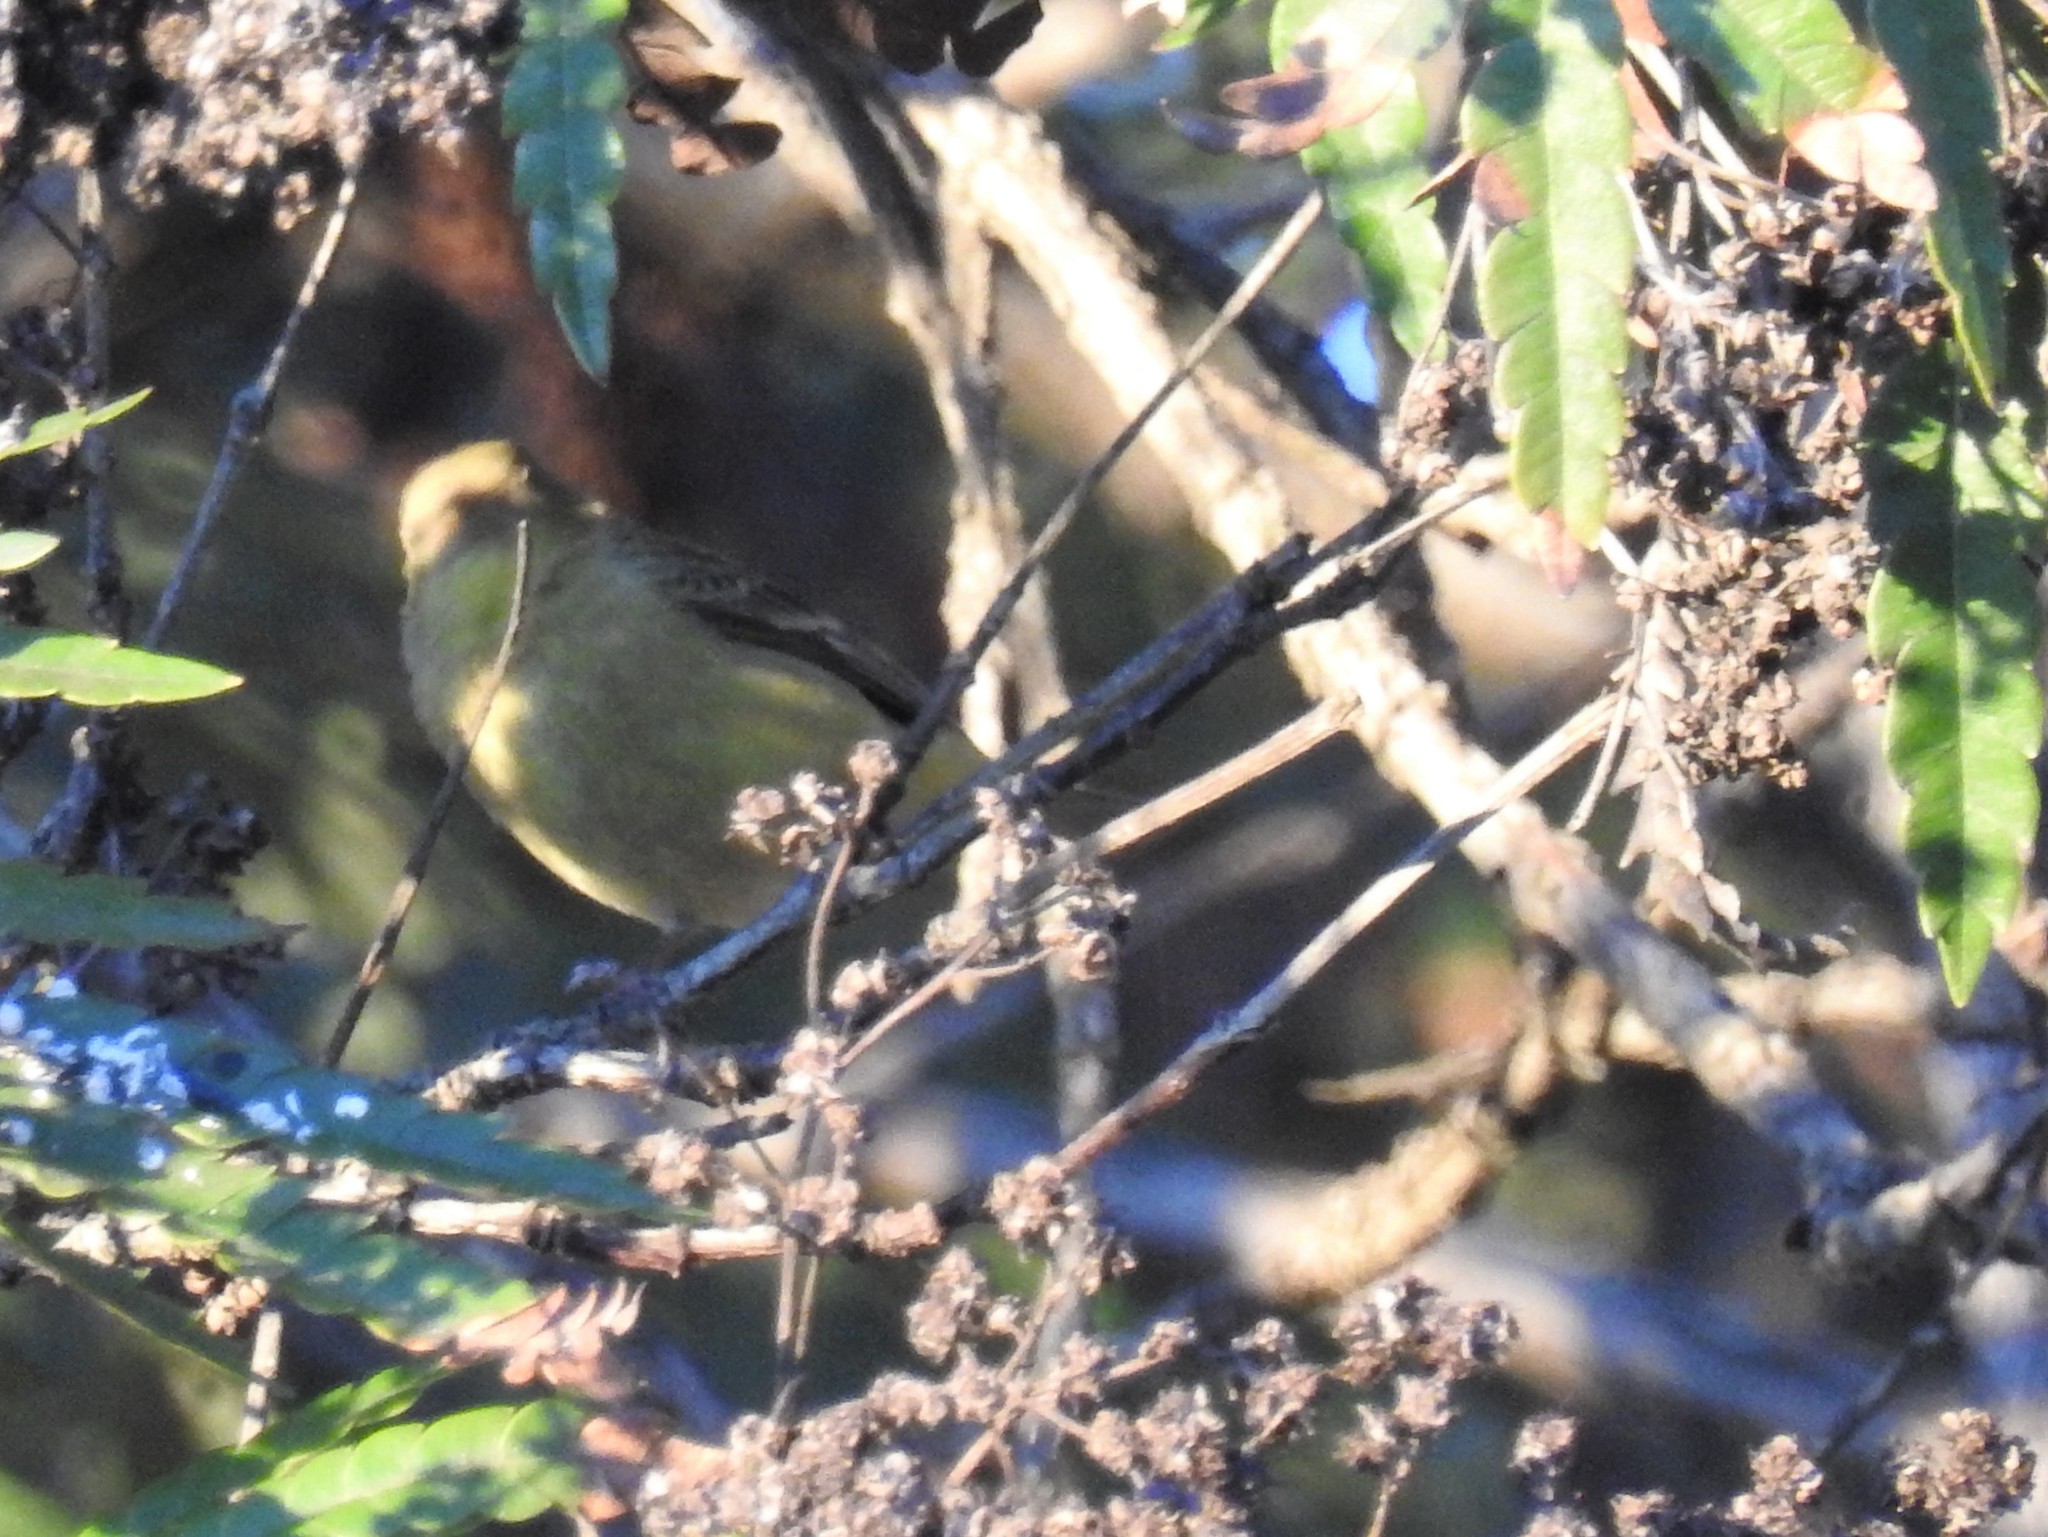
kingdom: Animalia
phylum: Chordata
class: Aves
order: Passeriformes
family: Fringillidae
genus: Spinus
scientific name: Spinus psaltria
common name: Lesser goldfinch
